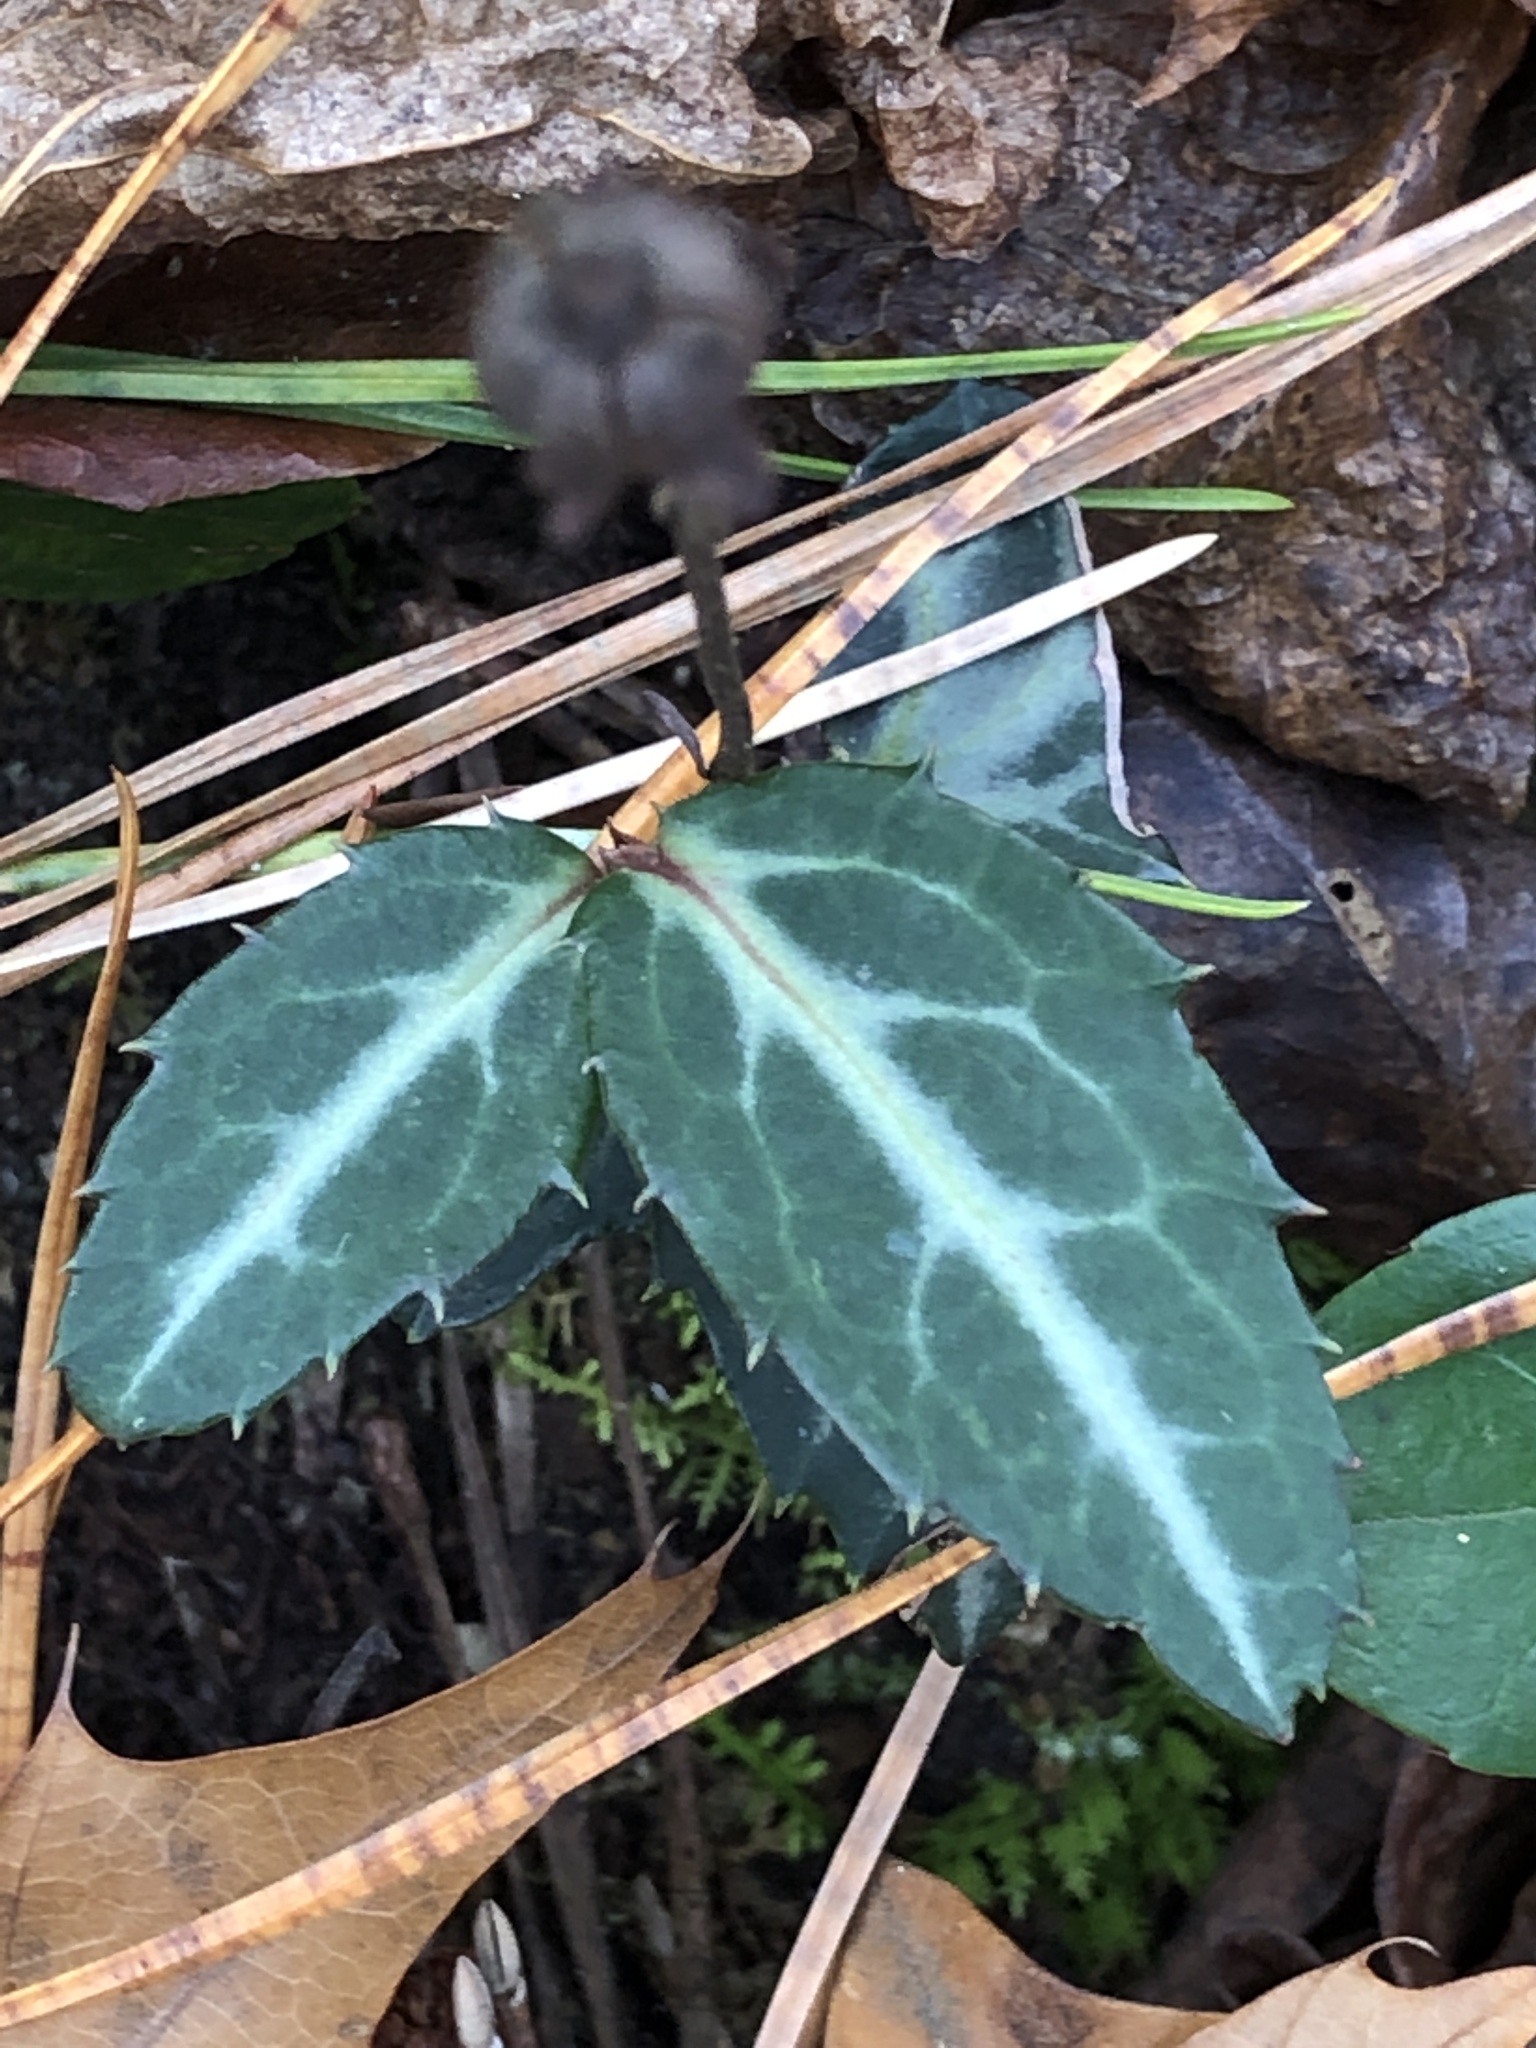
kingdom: Plantae
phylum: Tracheophyta
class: Magnoliopsida
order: Ericales
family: Ericaceae
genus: Chimaphila
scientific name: Chimaphila maculata
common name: Spotted pipsissewa
